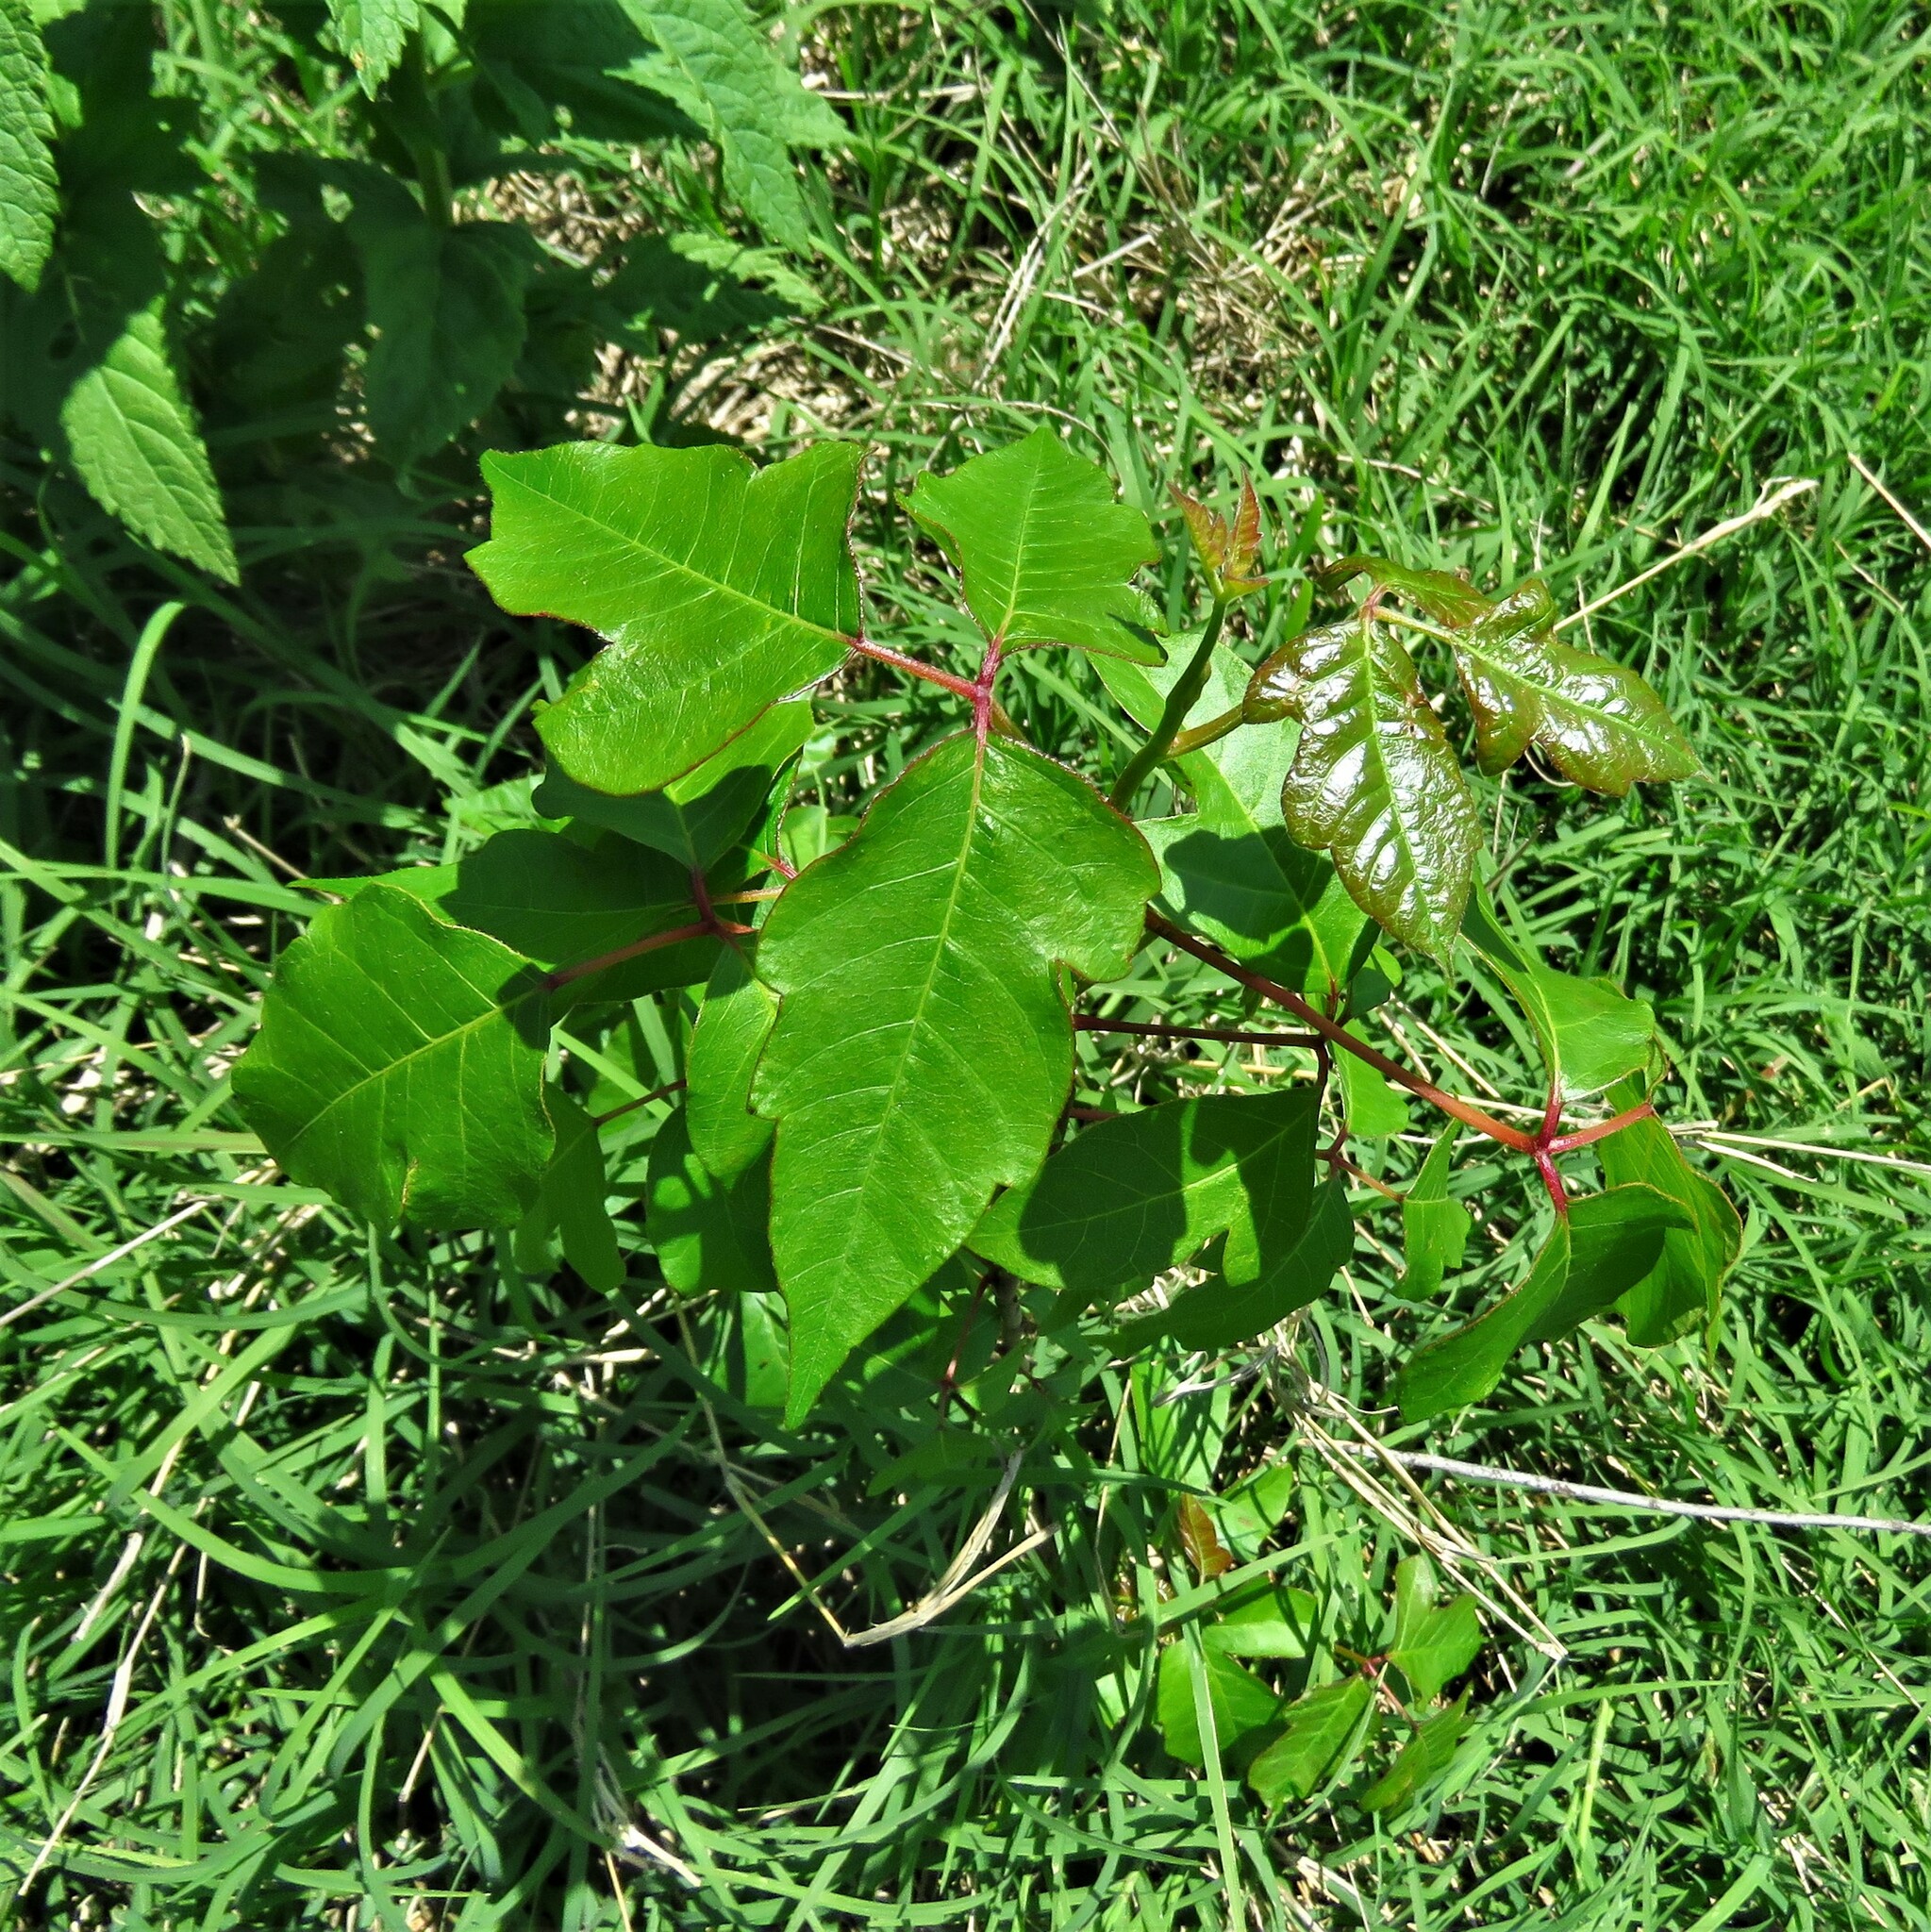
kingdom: Plantae
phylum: Tracheophyta
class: Magnoliopsida
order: Sapindales
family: Anacardiaceae
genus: Toxicodendron
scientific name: Toxicodendron radicans
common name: Poison ivy
